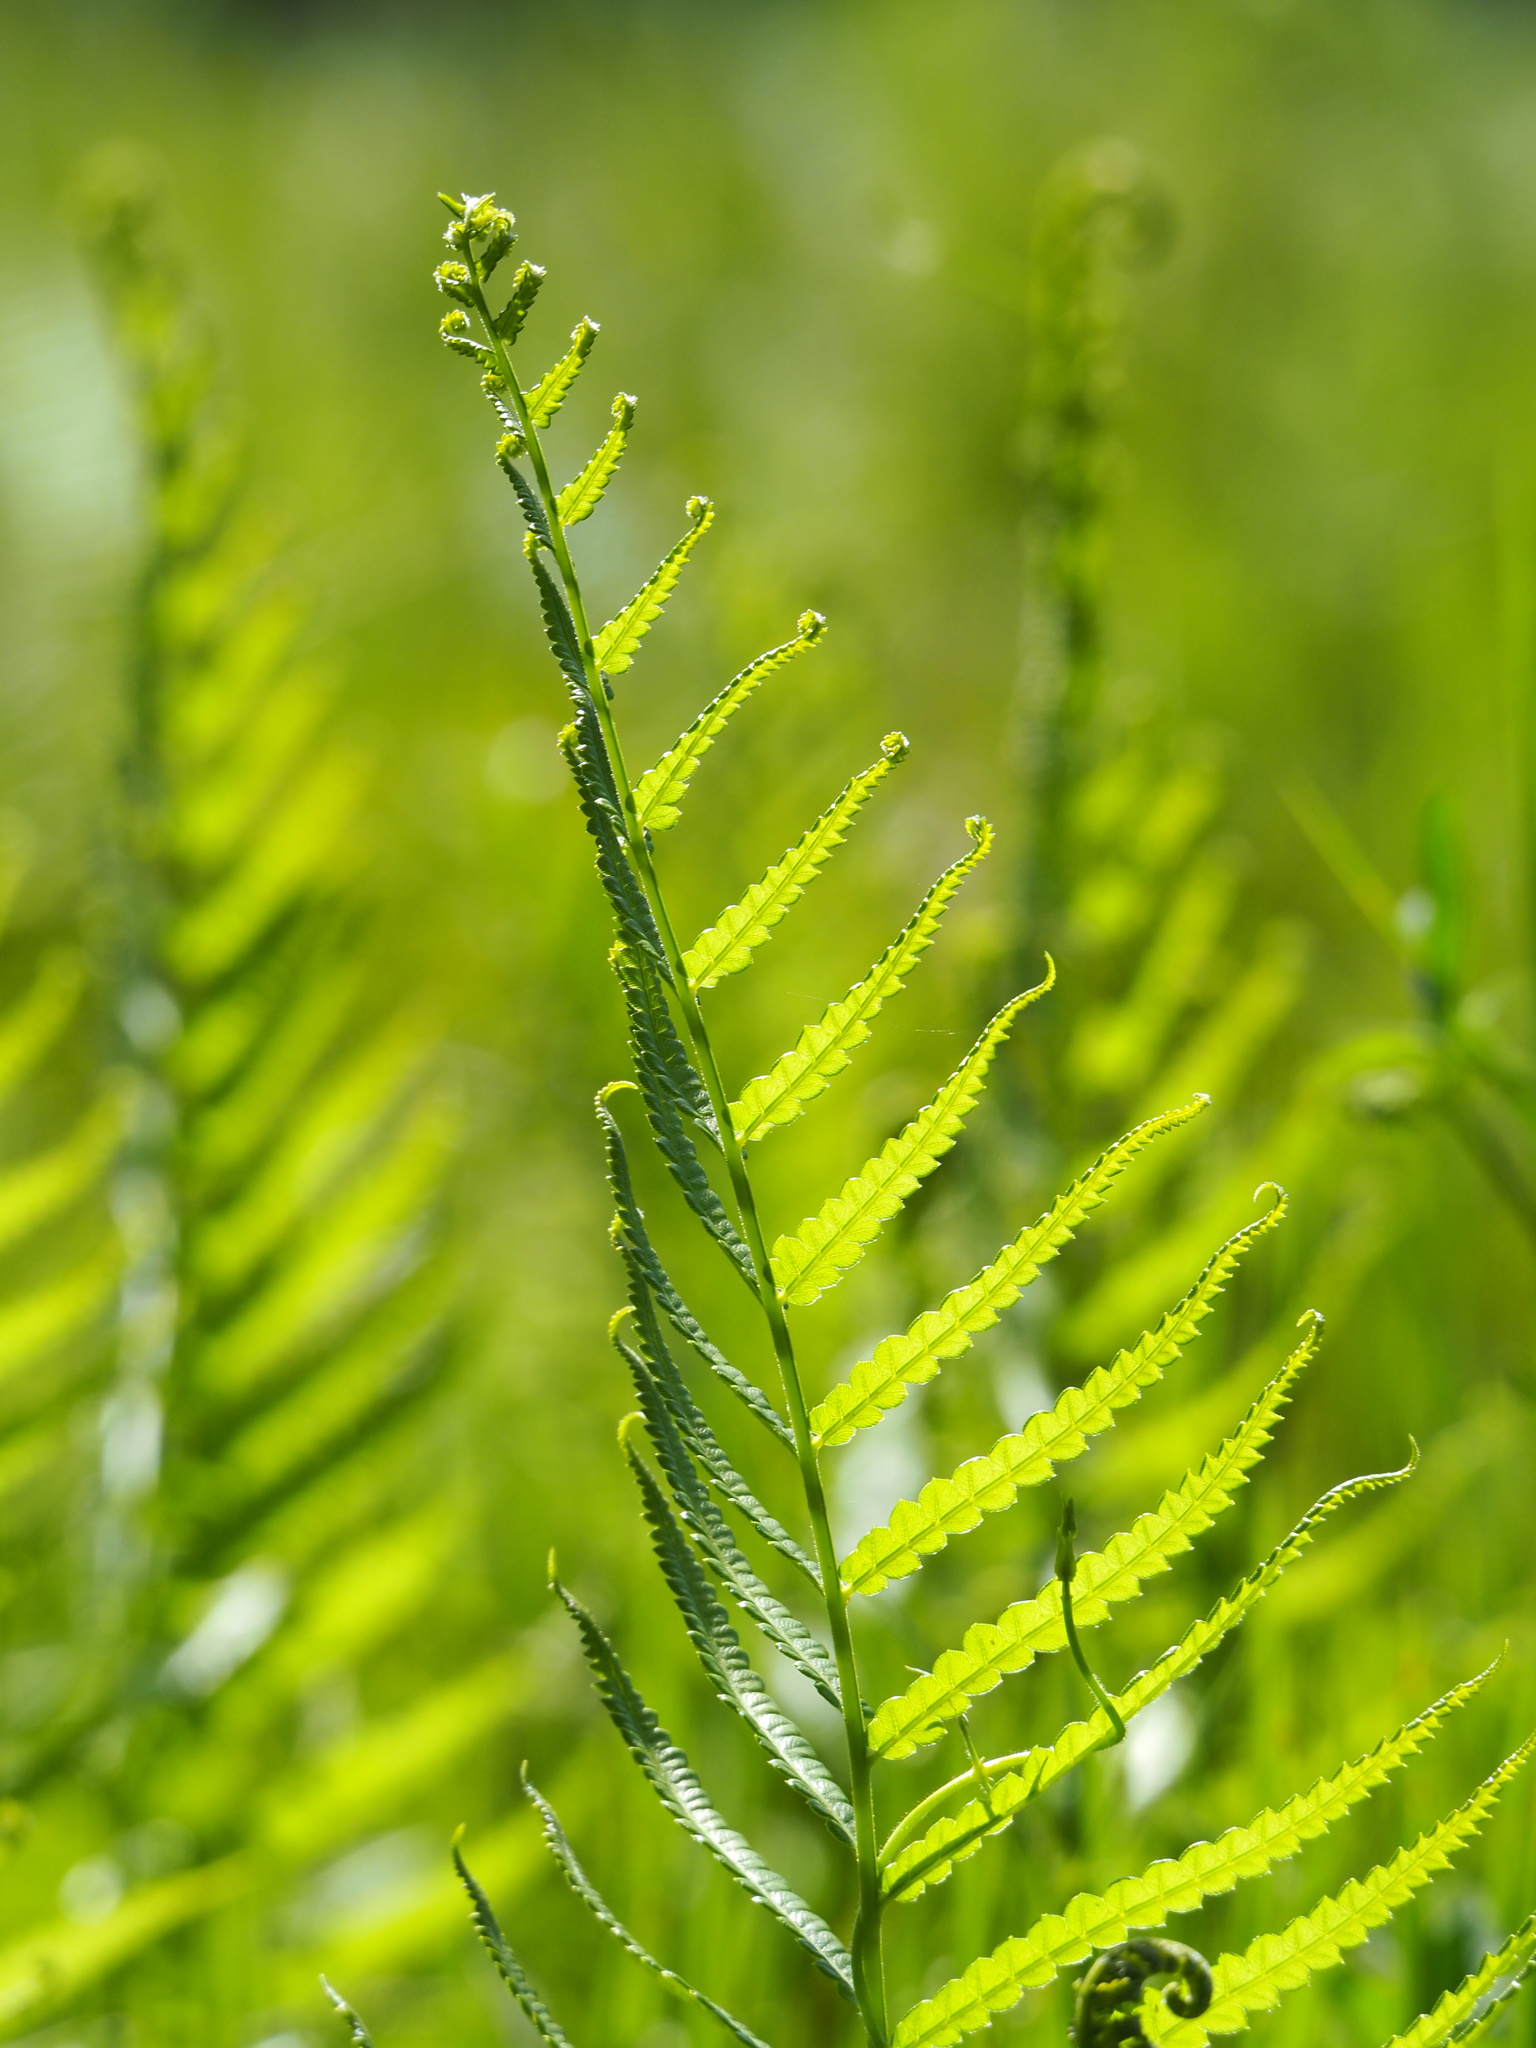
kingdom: Plantae
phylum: Tracheophyta
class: Polypodiopsida
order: Polypodiales
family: Thelypteridaceae
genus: Cyclosorus
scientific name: Cyclosorus interruptus
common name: Neke fern
